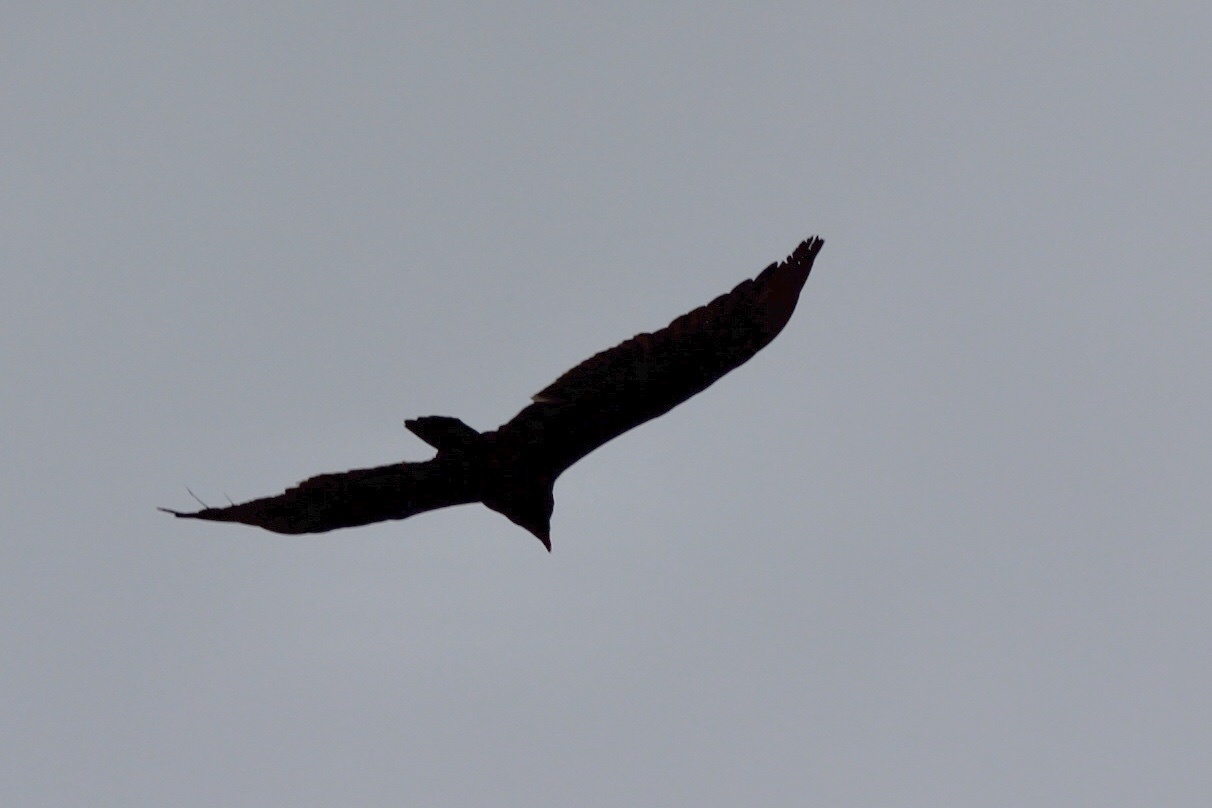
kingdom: Animalia
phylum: Chordata
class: Aves
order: Accipitriformes
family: Cathartidae
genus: Cathartes
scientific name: Cathartes aura
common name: Turkey vulture
